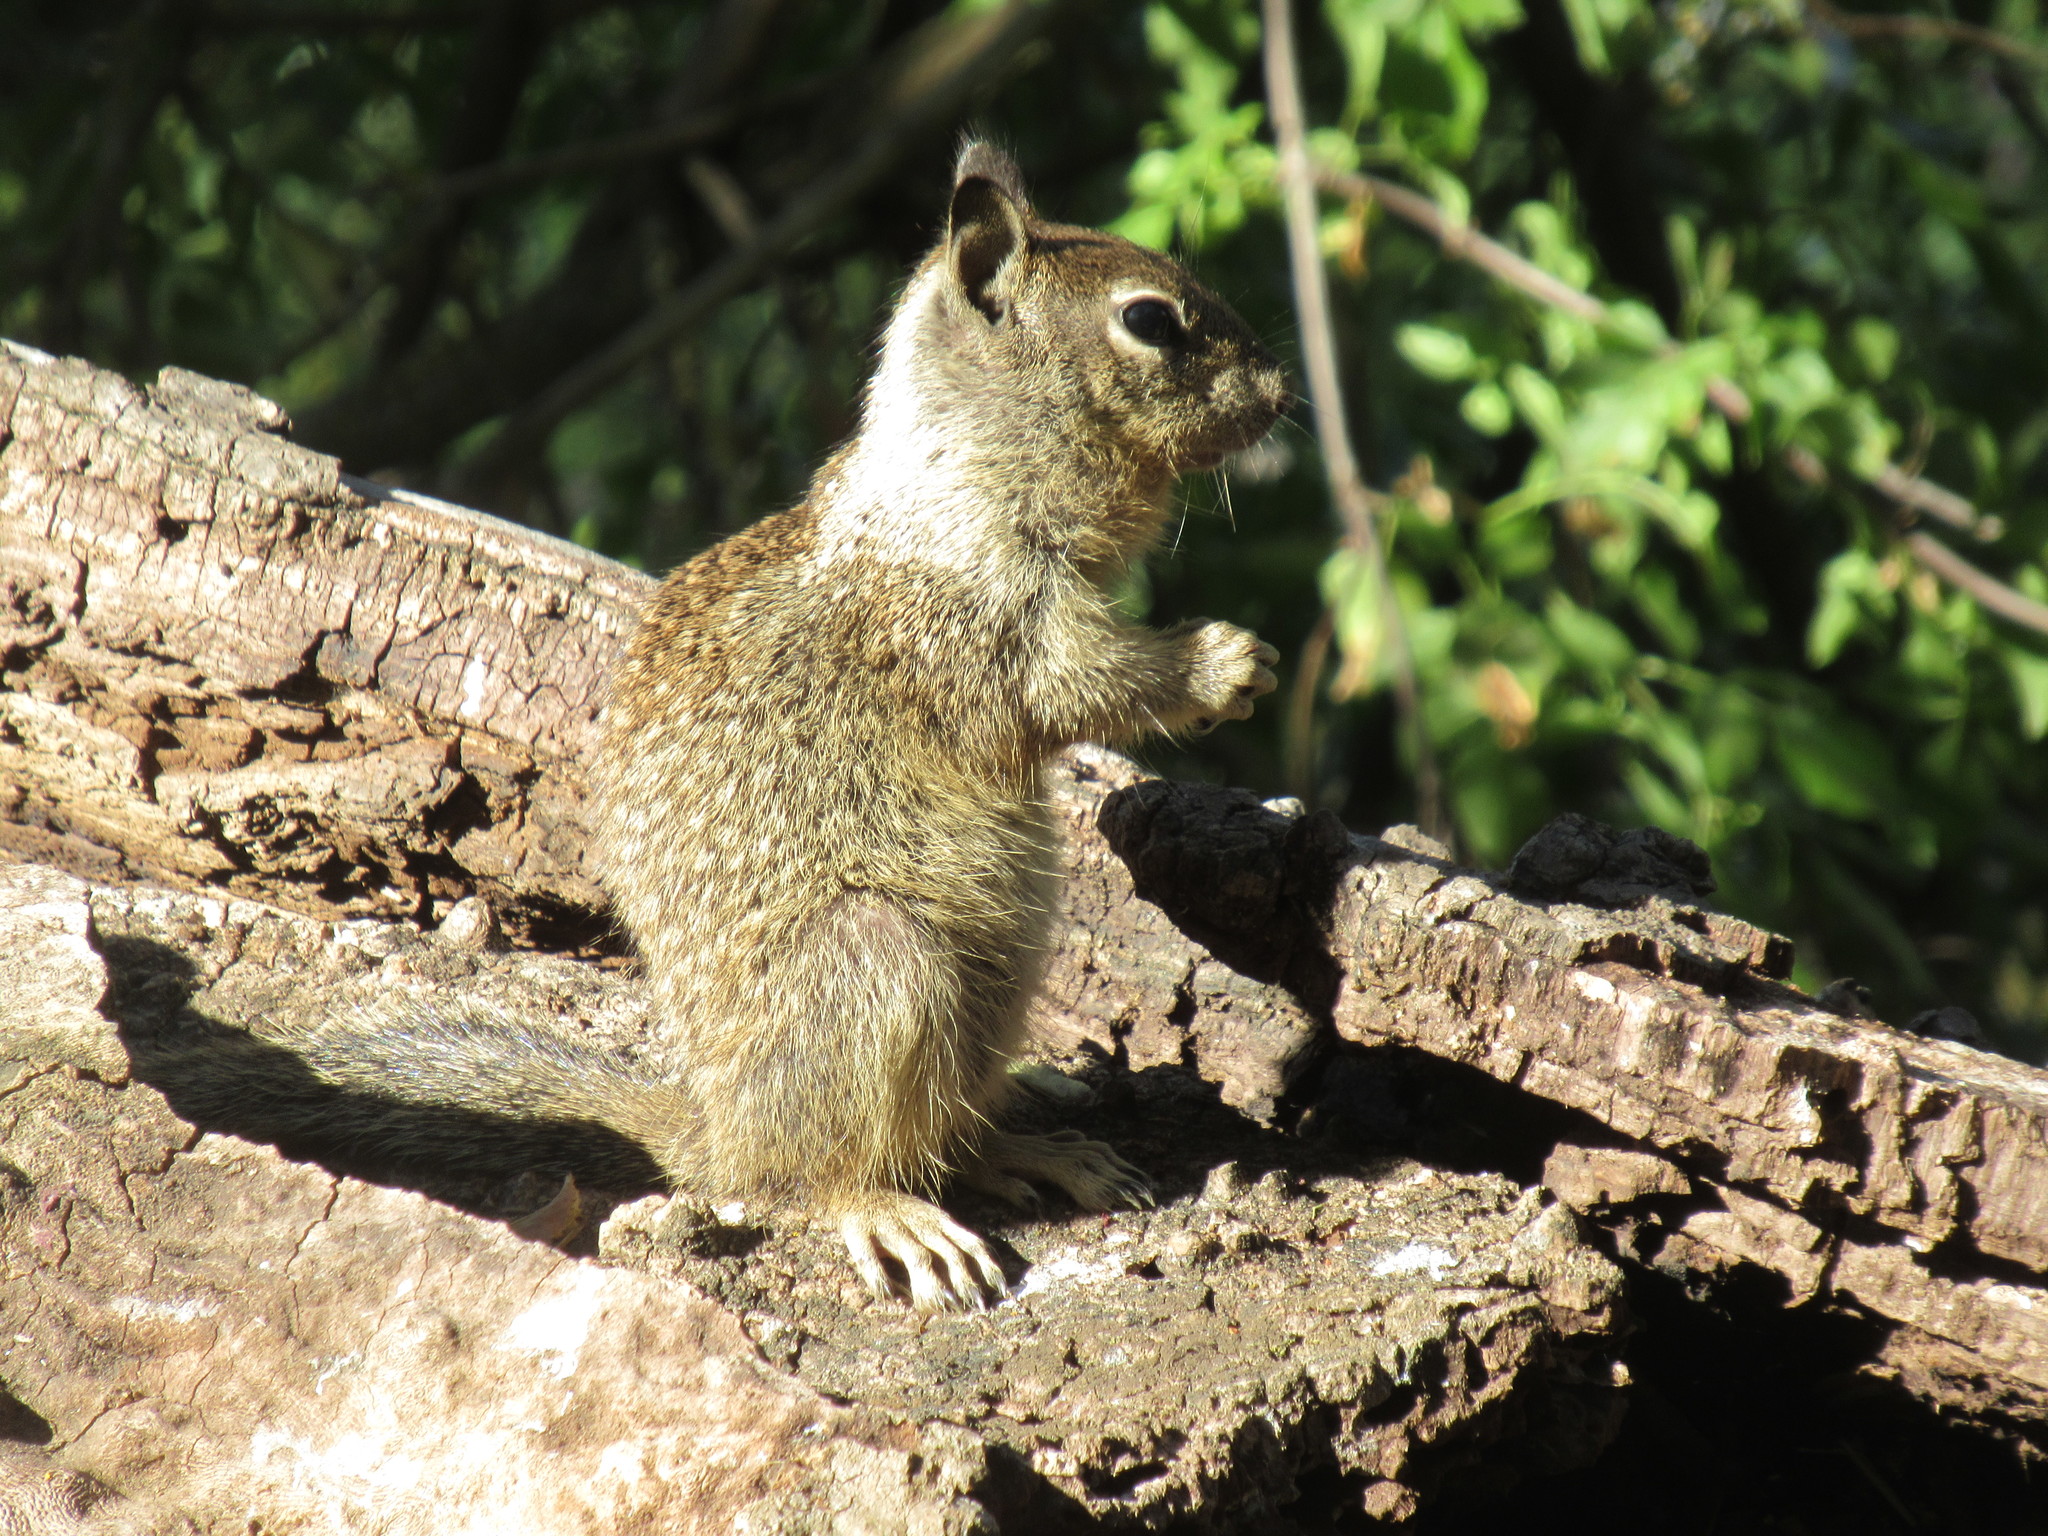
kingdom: Animalia
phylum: Chordata
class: Mammalia
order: Rodentia
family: Sciuridae
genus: Otospermophilus
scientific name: Otospermophilus beecheyi
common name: California ground squirrel
